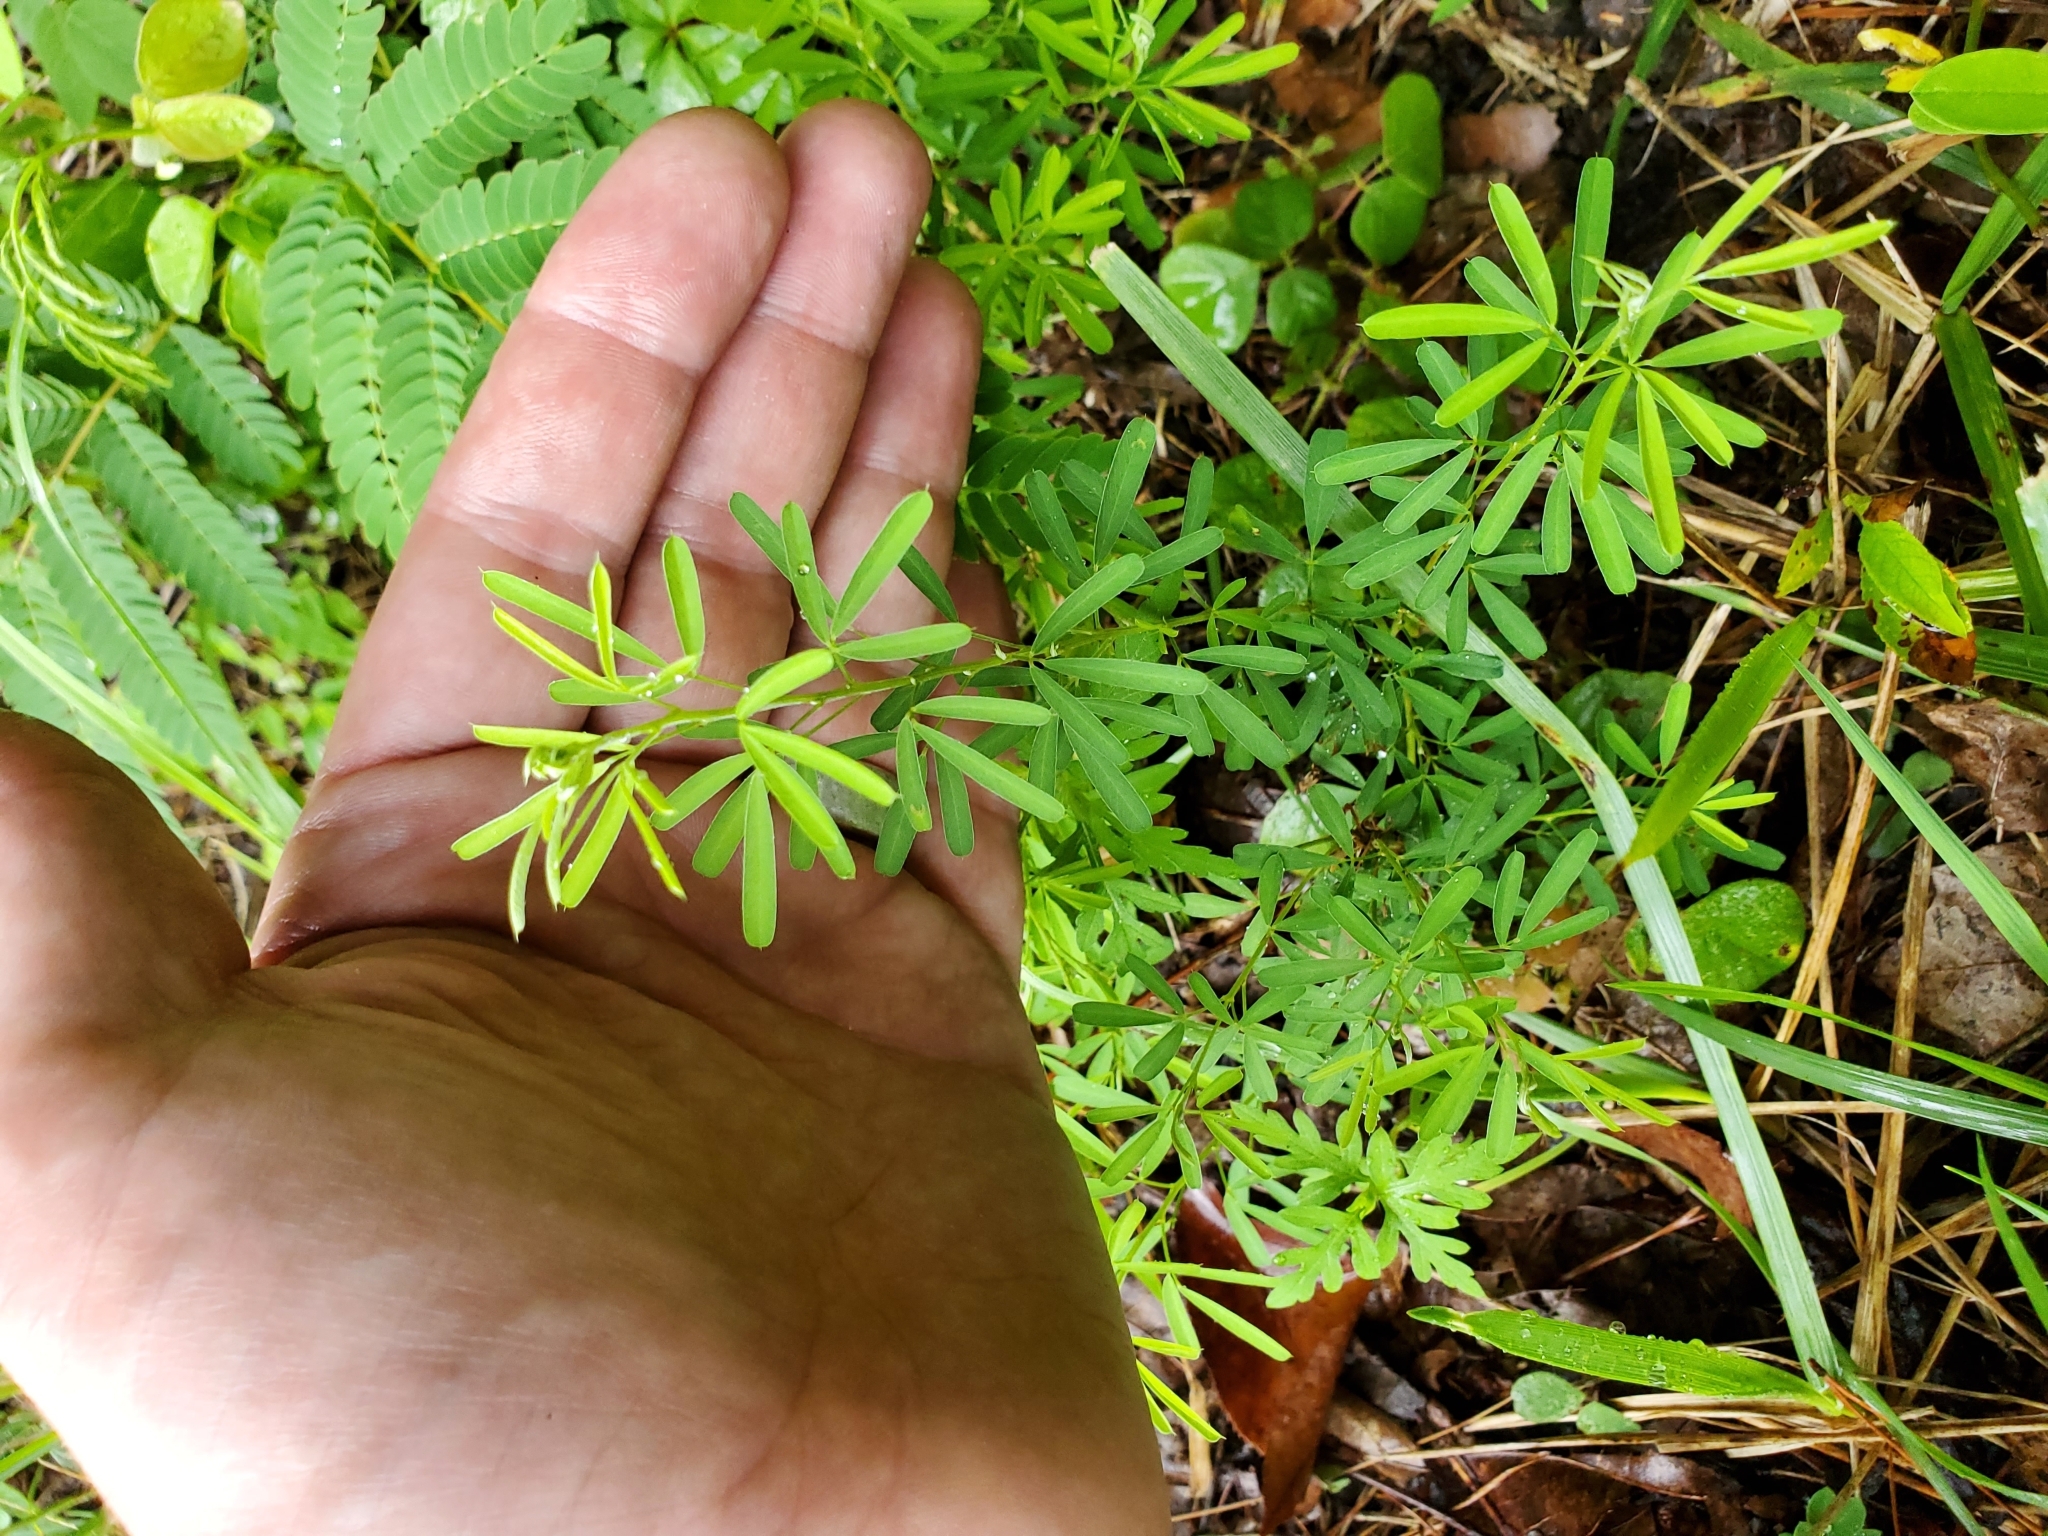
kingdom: Plantae
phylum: Tracheophyta
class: Magnoliopsida
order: Fabales
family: Fabaceae
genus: Lespedeza
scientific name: Lespedeza cuneata
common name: Chinese bush-clover
